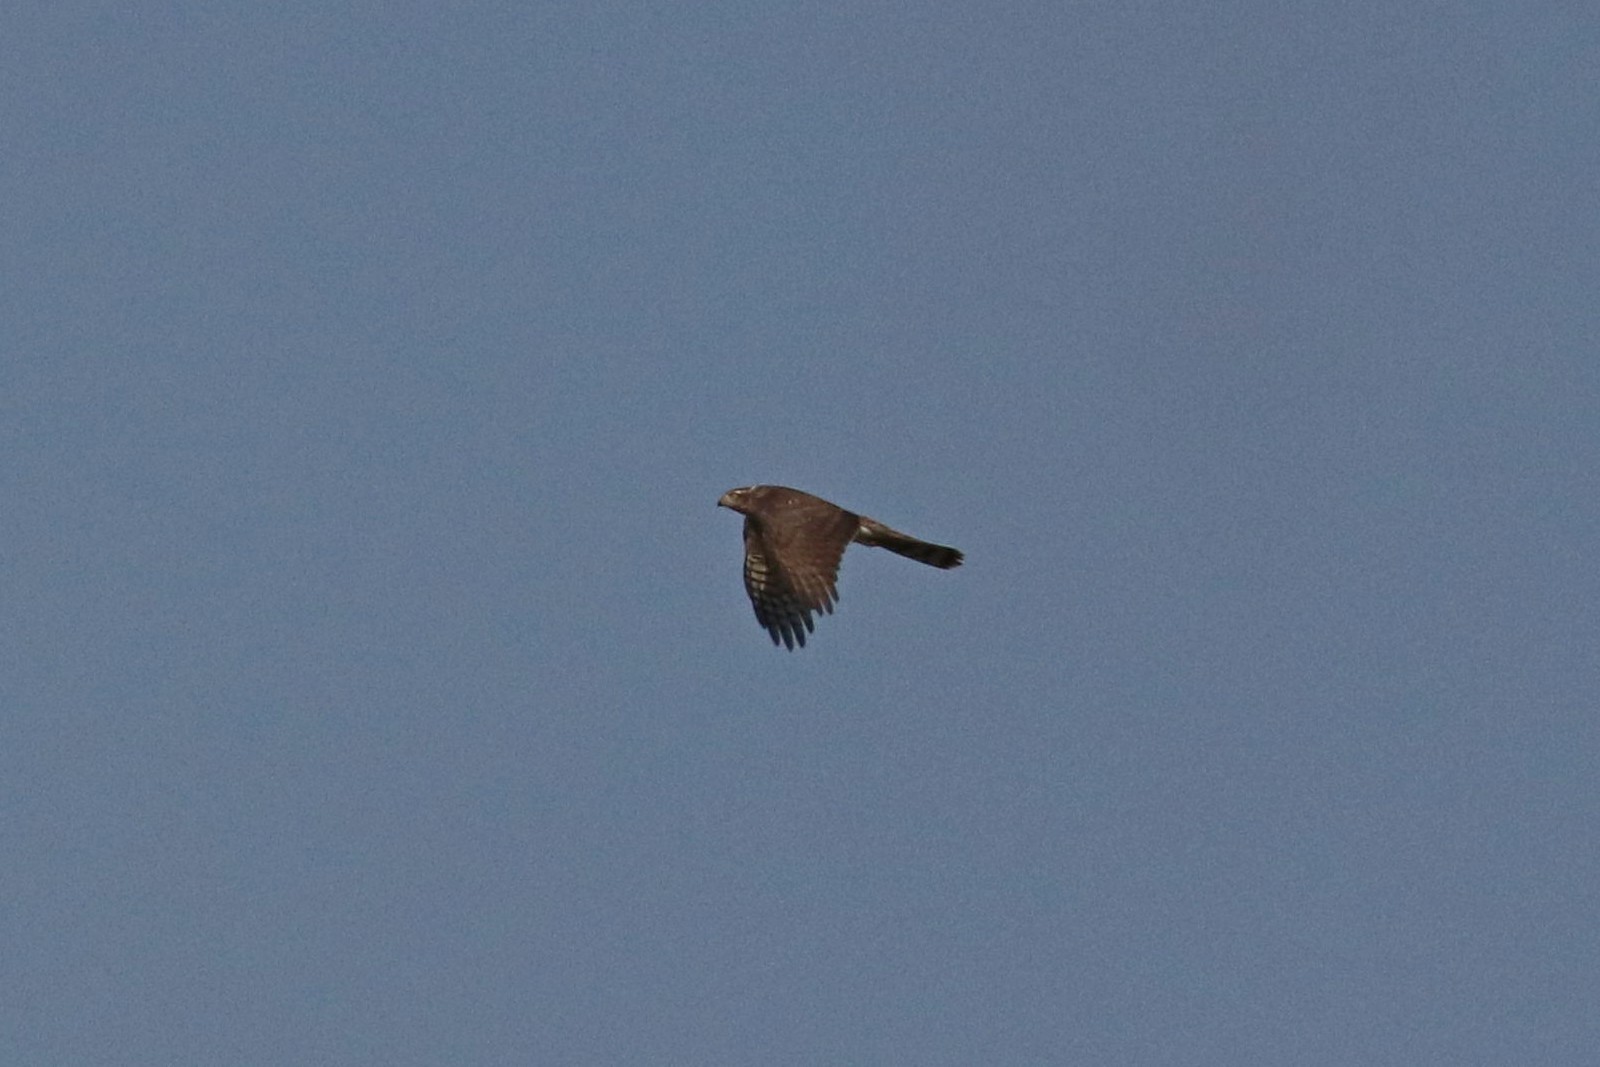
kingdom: Animalia
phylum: Chordata
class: Aves
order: Accipitriformes
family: Accipitridae
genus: Accipiter
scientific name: Accipiter nisus
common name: Eurasian sparrowhawk
